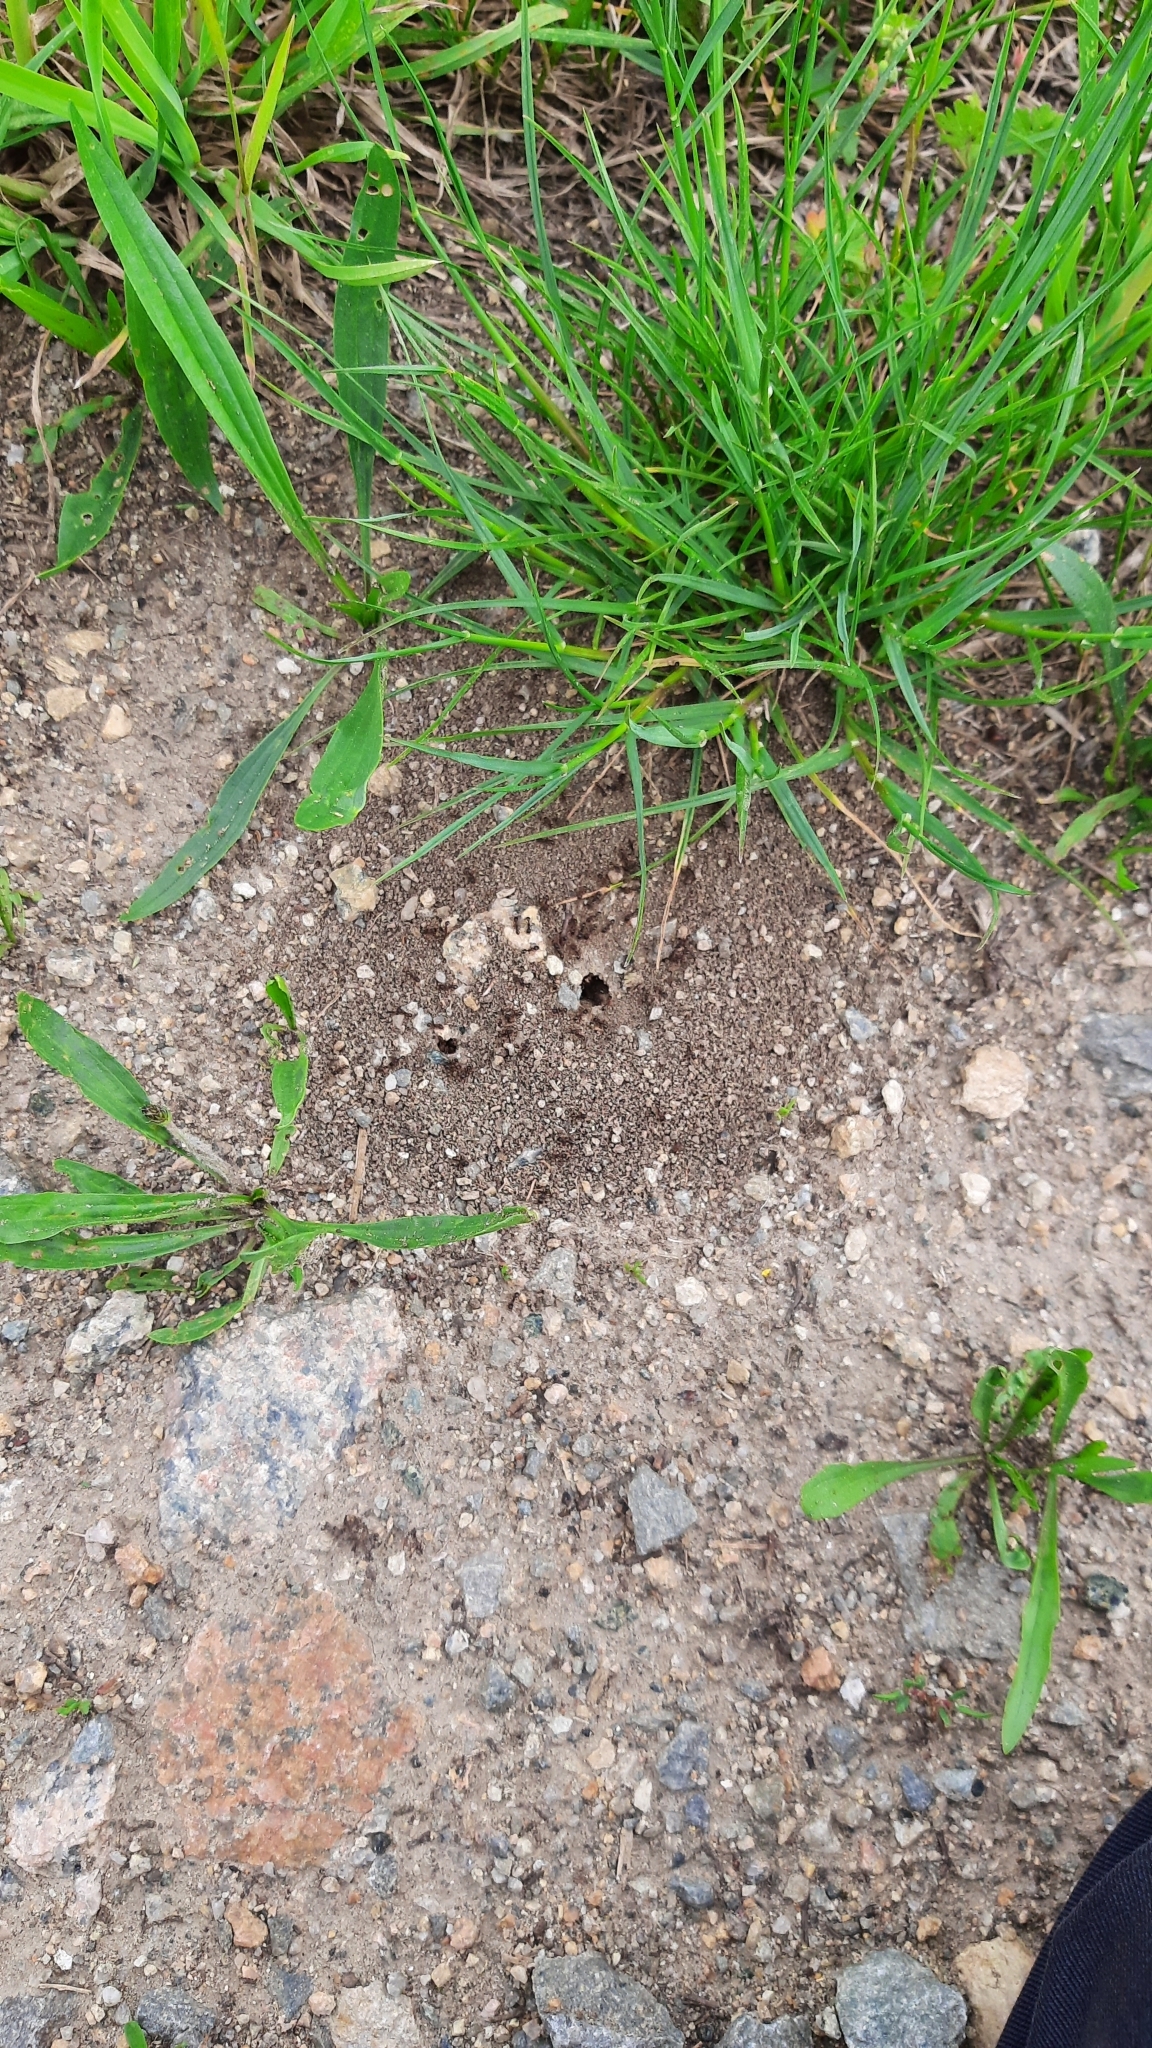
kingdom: Animalia
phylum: Arthropoda
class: Insecta
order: Hymenoptera
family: Formicidae
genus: Tetramorium
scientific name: Tetramorium
